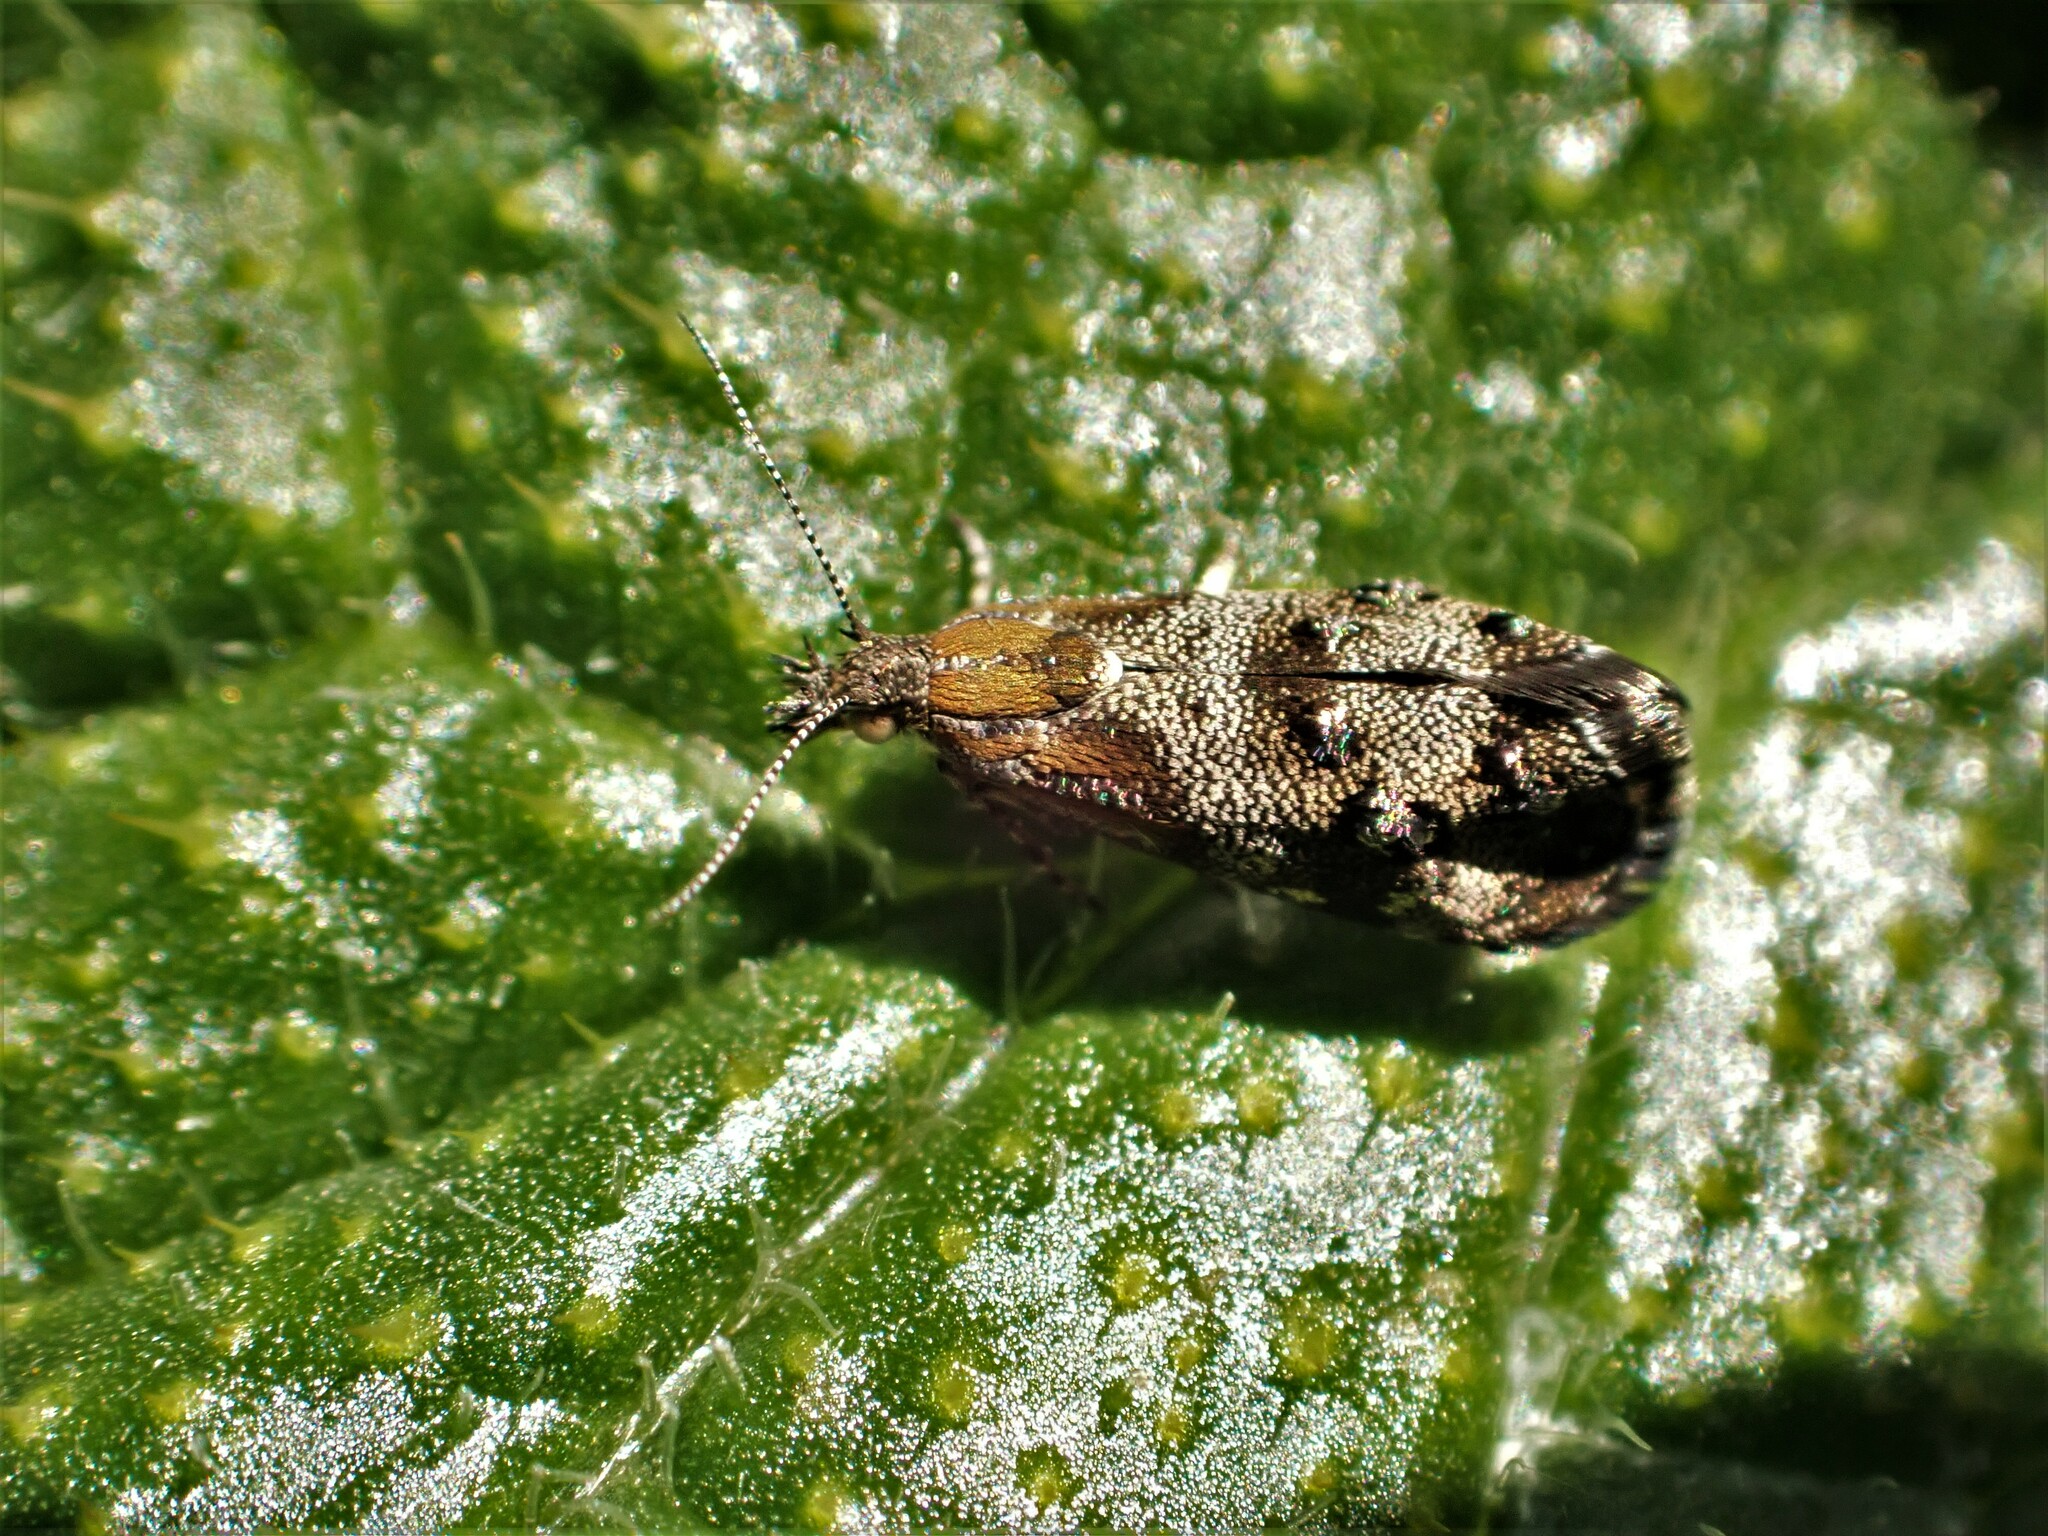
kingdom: Animalia
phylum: Arthropoda
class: Insecta
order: Lepidoptera
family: Choreutidae
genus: Tebenna
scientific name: Tebenna micalis
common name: Vagrant twitcher
